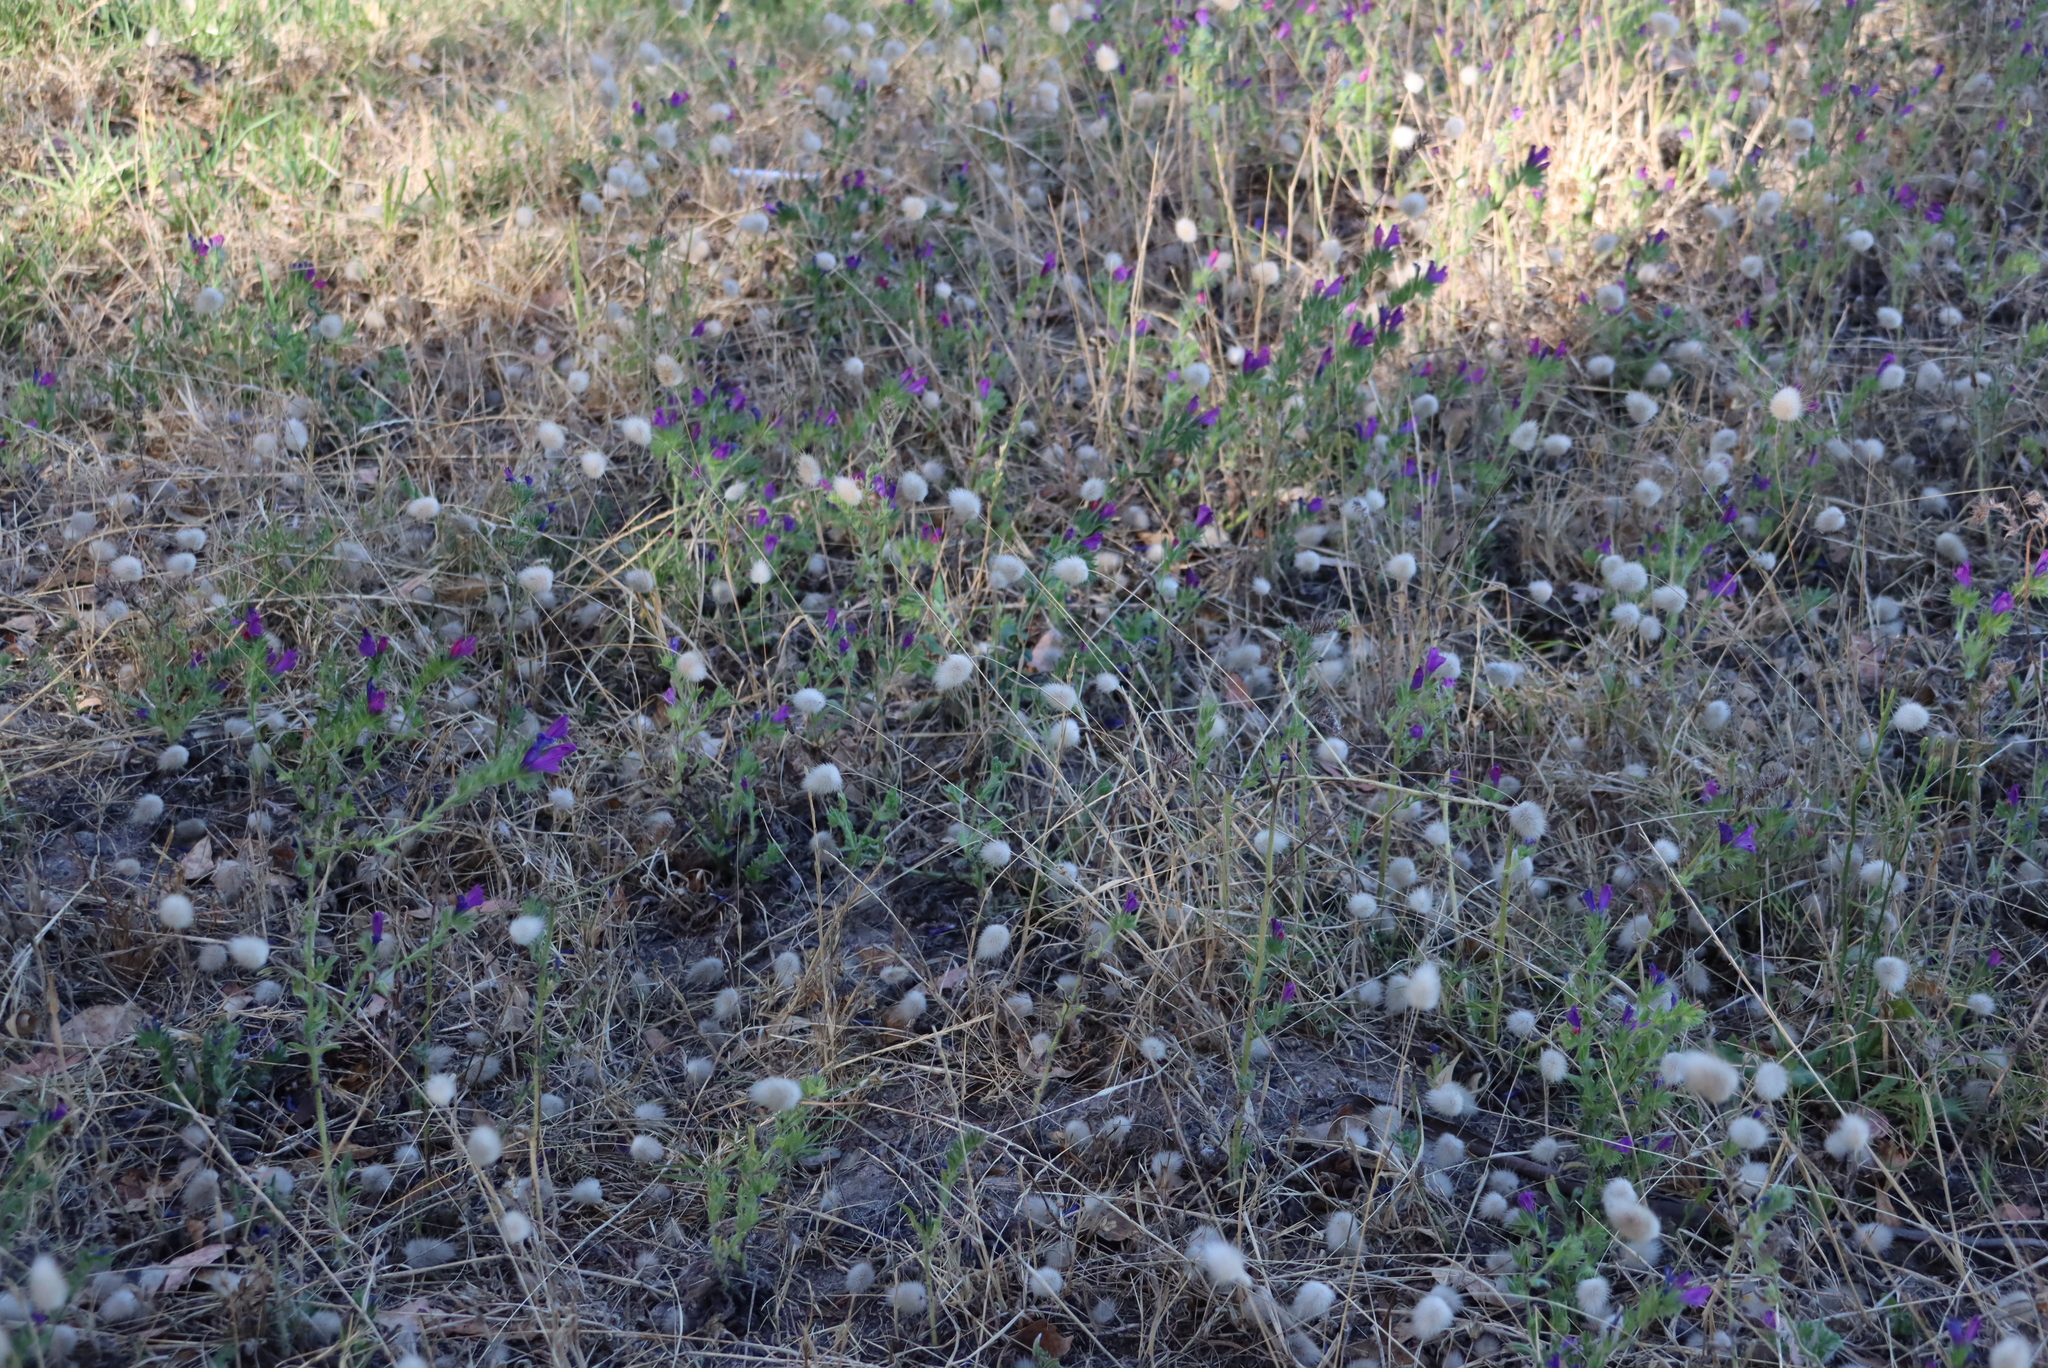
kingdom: Plantae
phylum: Tracheophyta
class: Magnoliopsida
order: Boraginales
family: Boraginaceae
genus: Echium
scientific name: Echium plantagineum
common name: Purple viper's-bugloss
